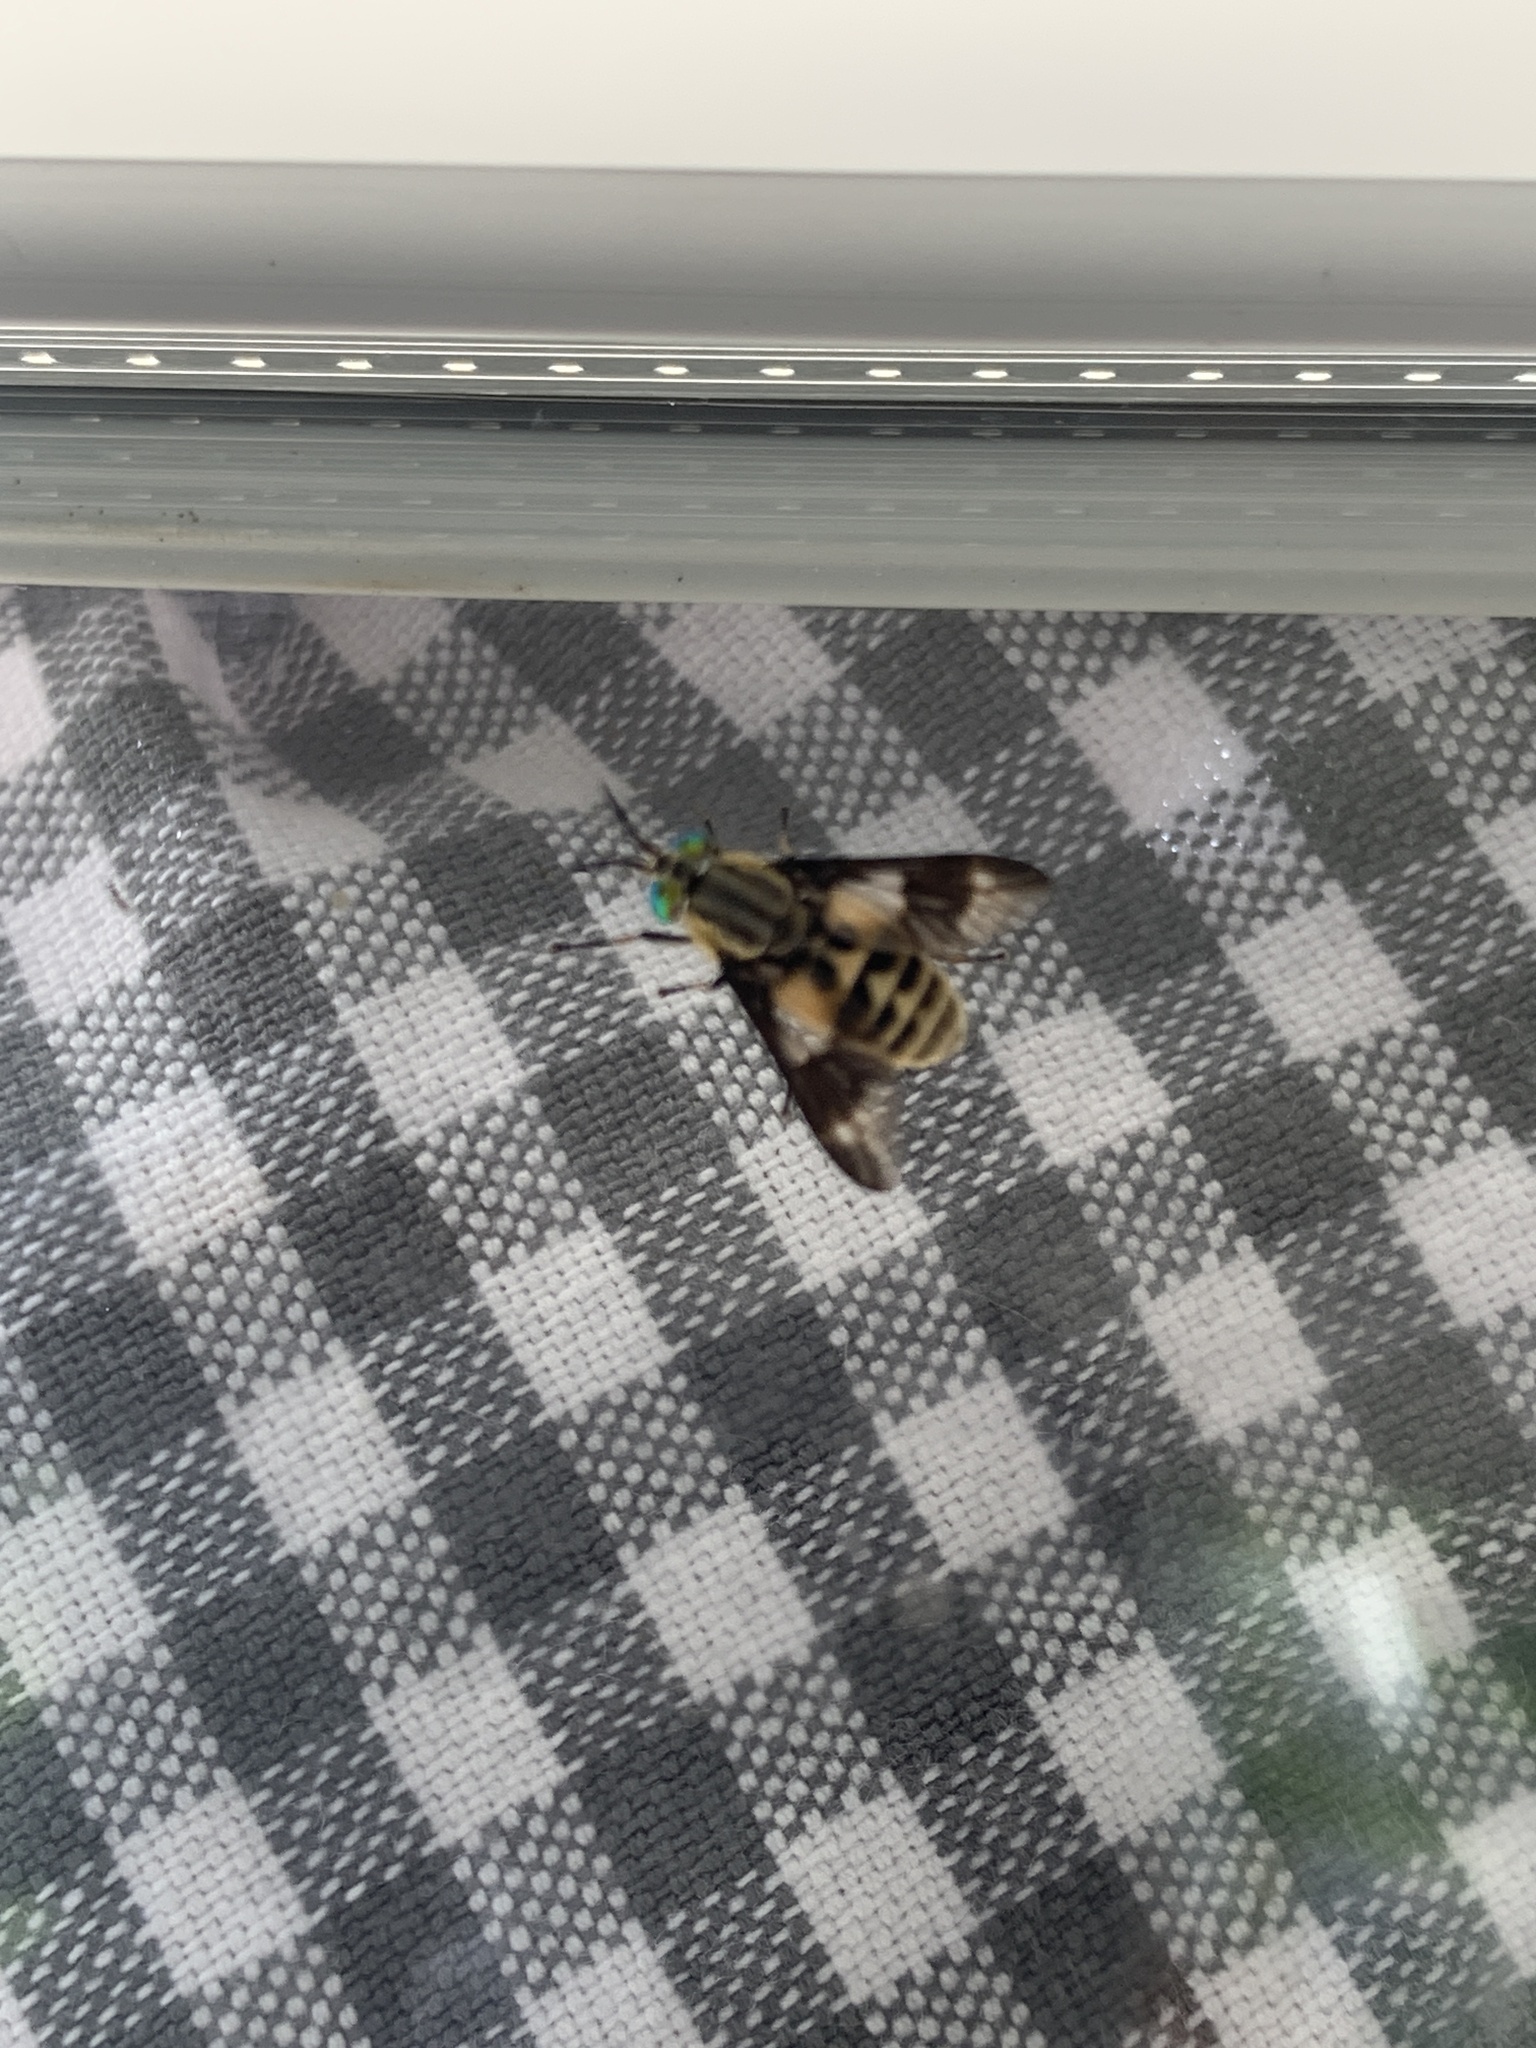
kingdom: Animalia
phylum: Arthropoda
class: Insecta
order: Diptera
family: Tabanidae
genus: Chrysops
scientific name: Chrysops relictus
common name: Twin-lobed deerfly
